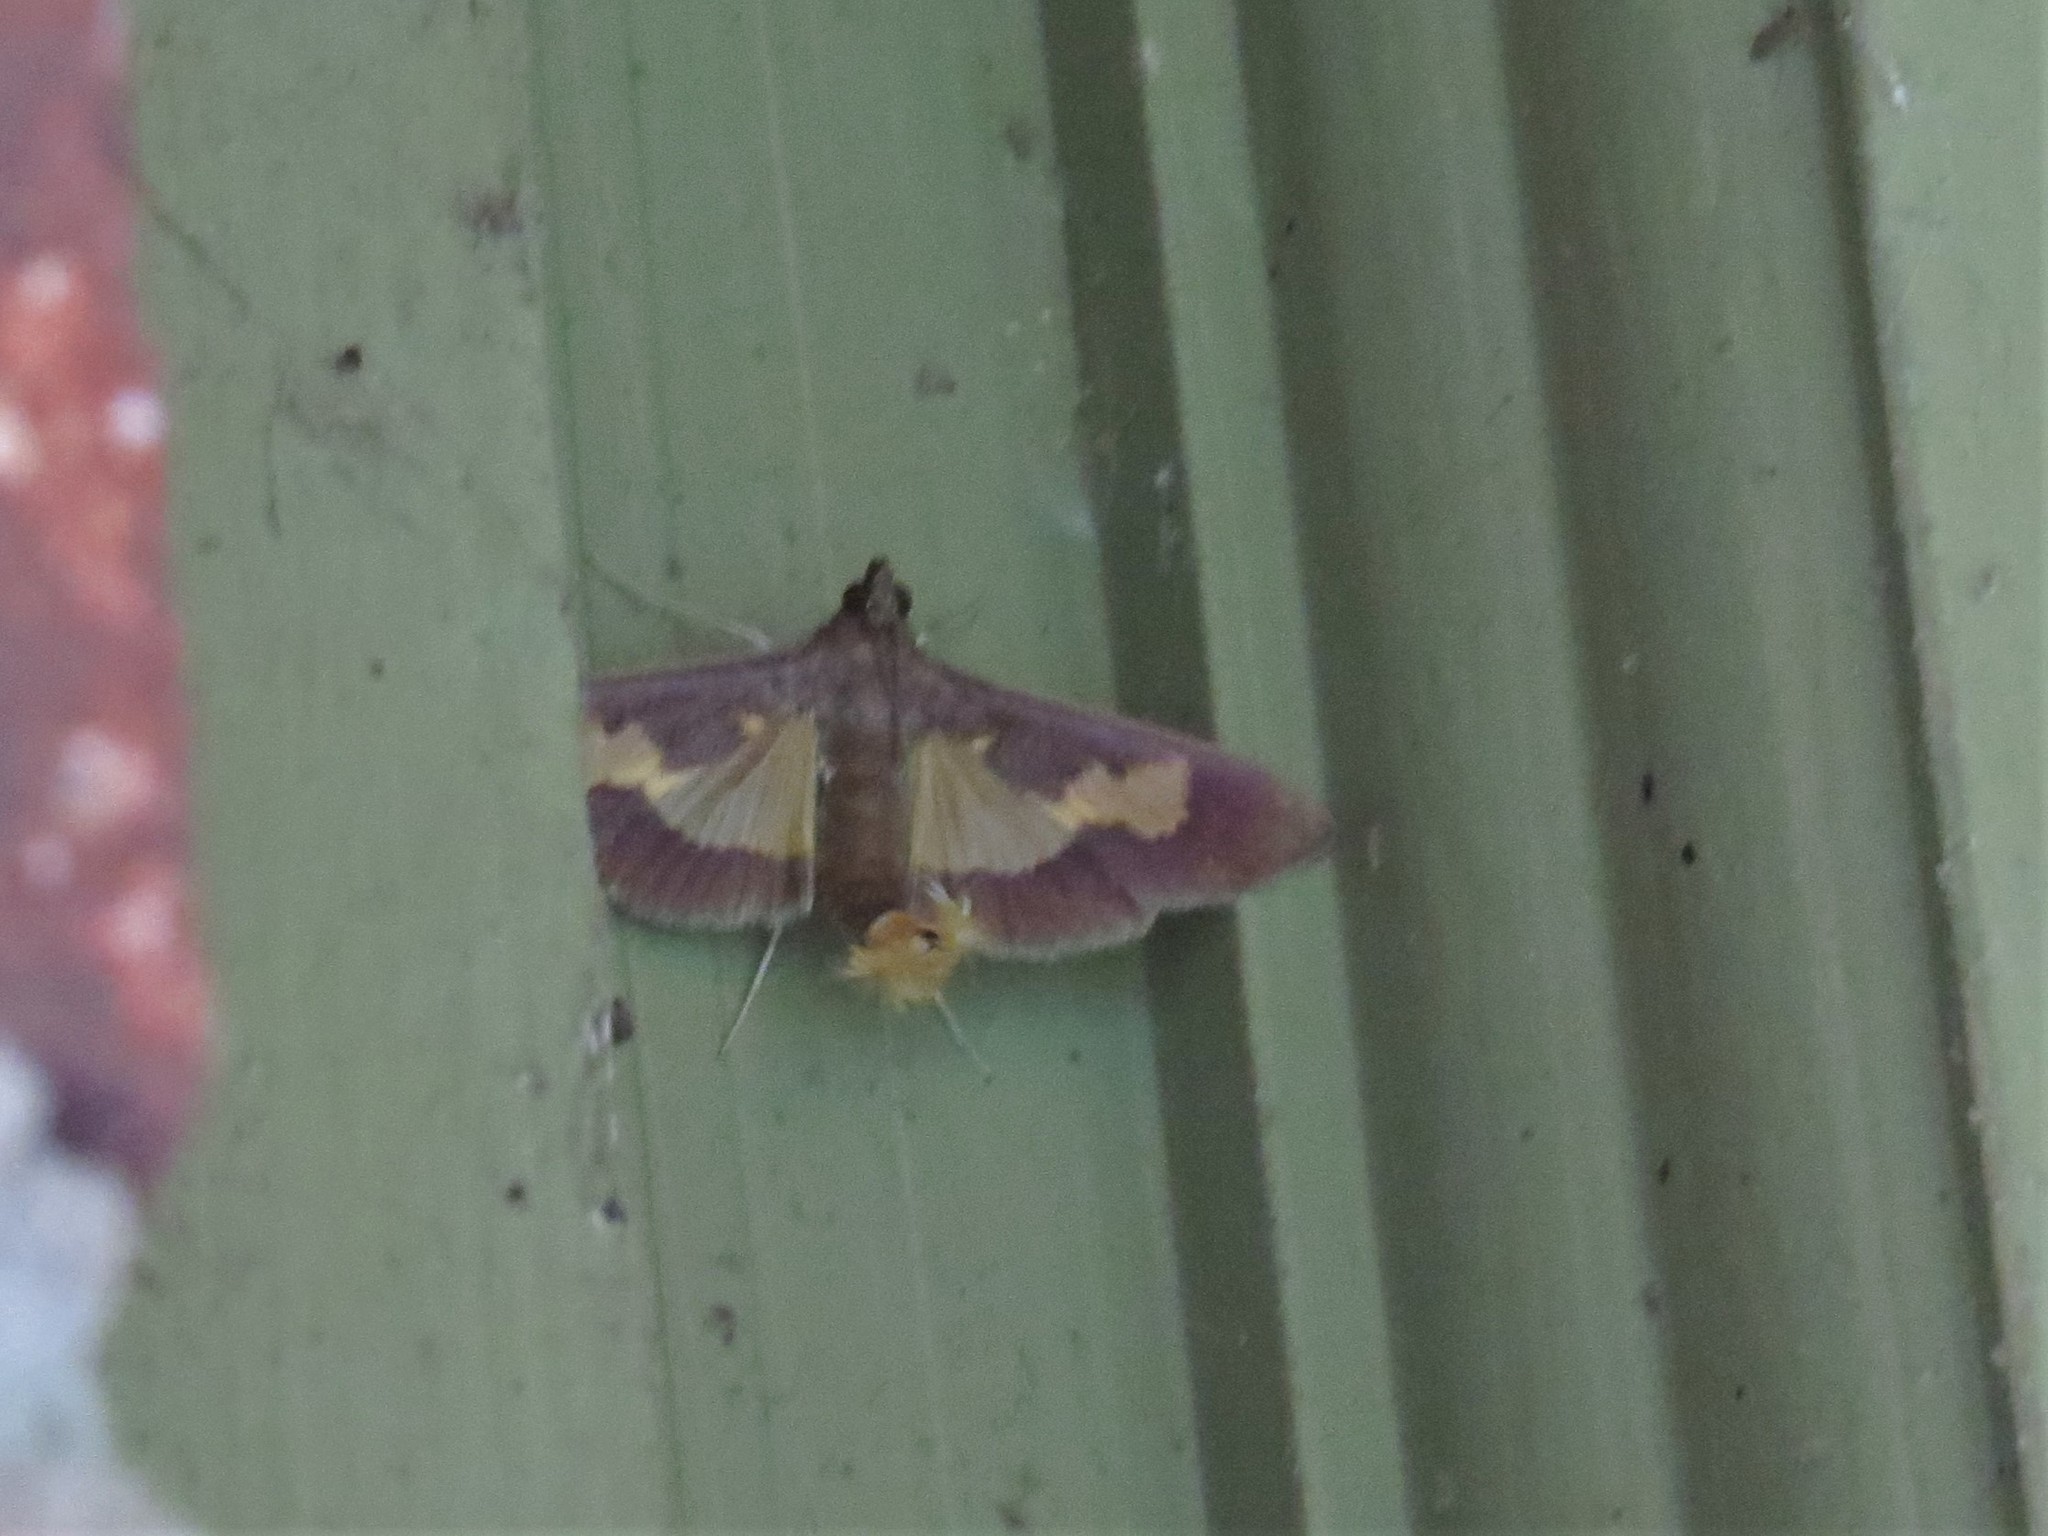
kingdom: Animalia
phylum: Arthropoda
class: Insecta
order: Lepidoptera
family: Crambidae
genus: Cryptographis
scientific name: Cryptographis nitidalis
